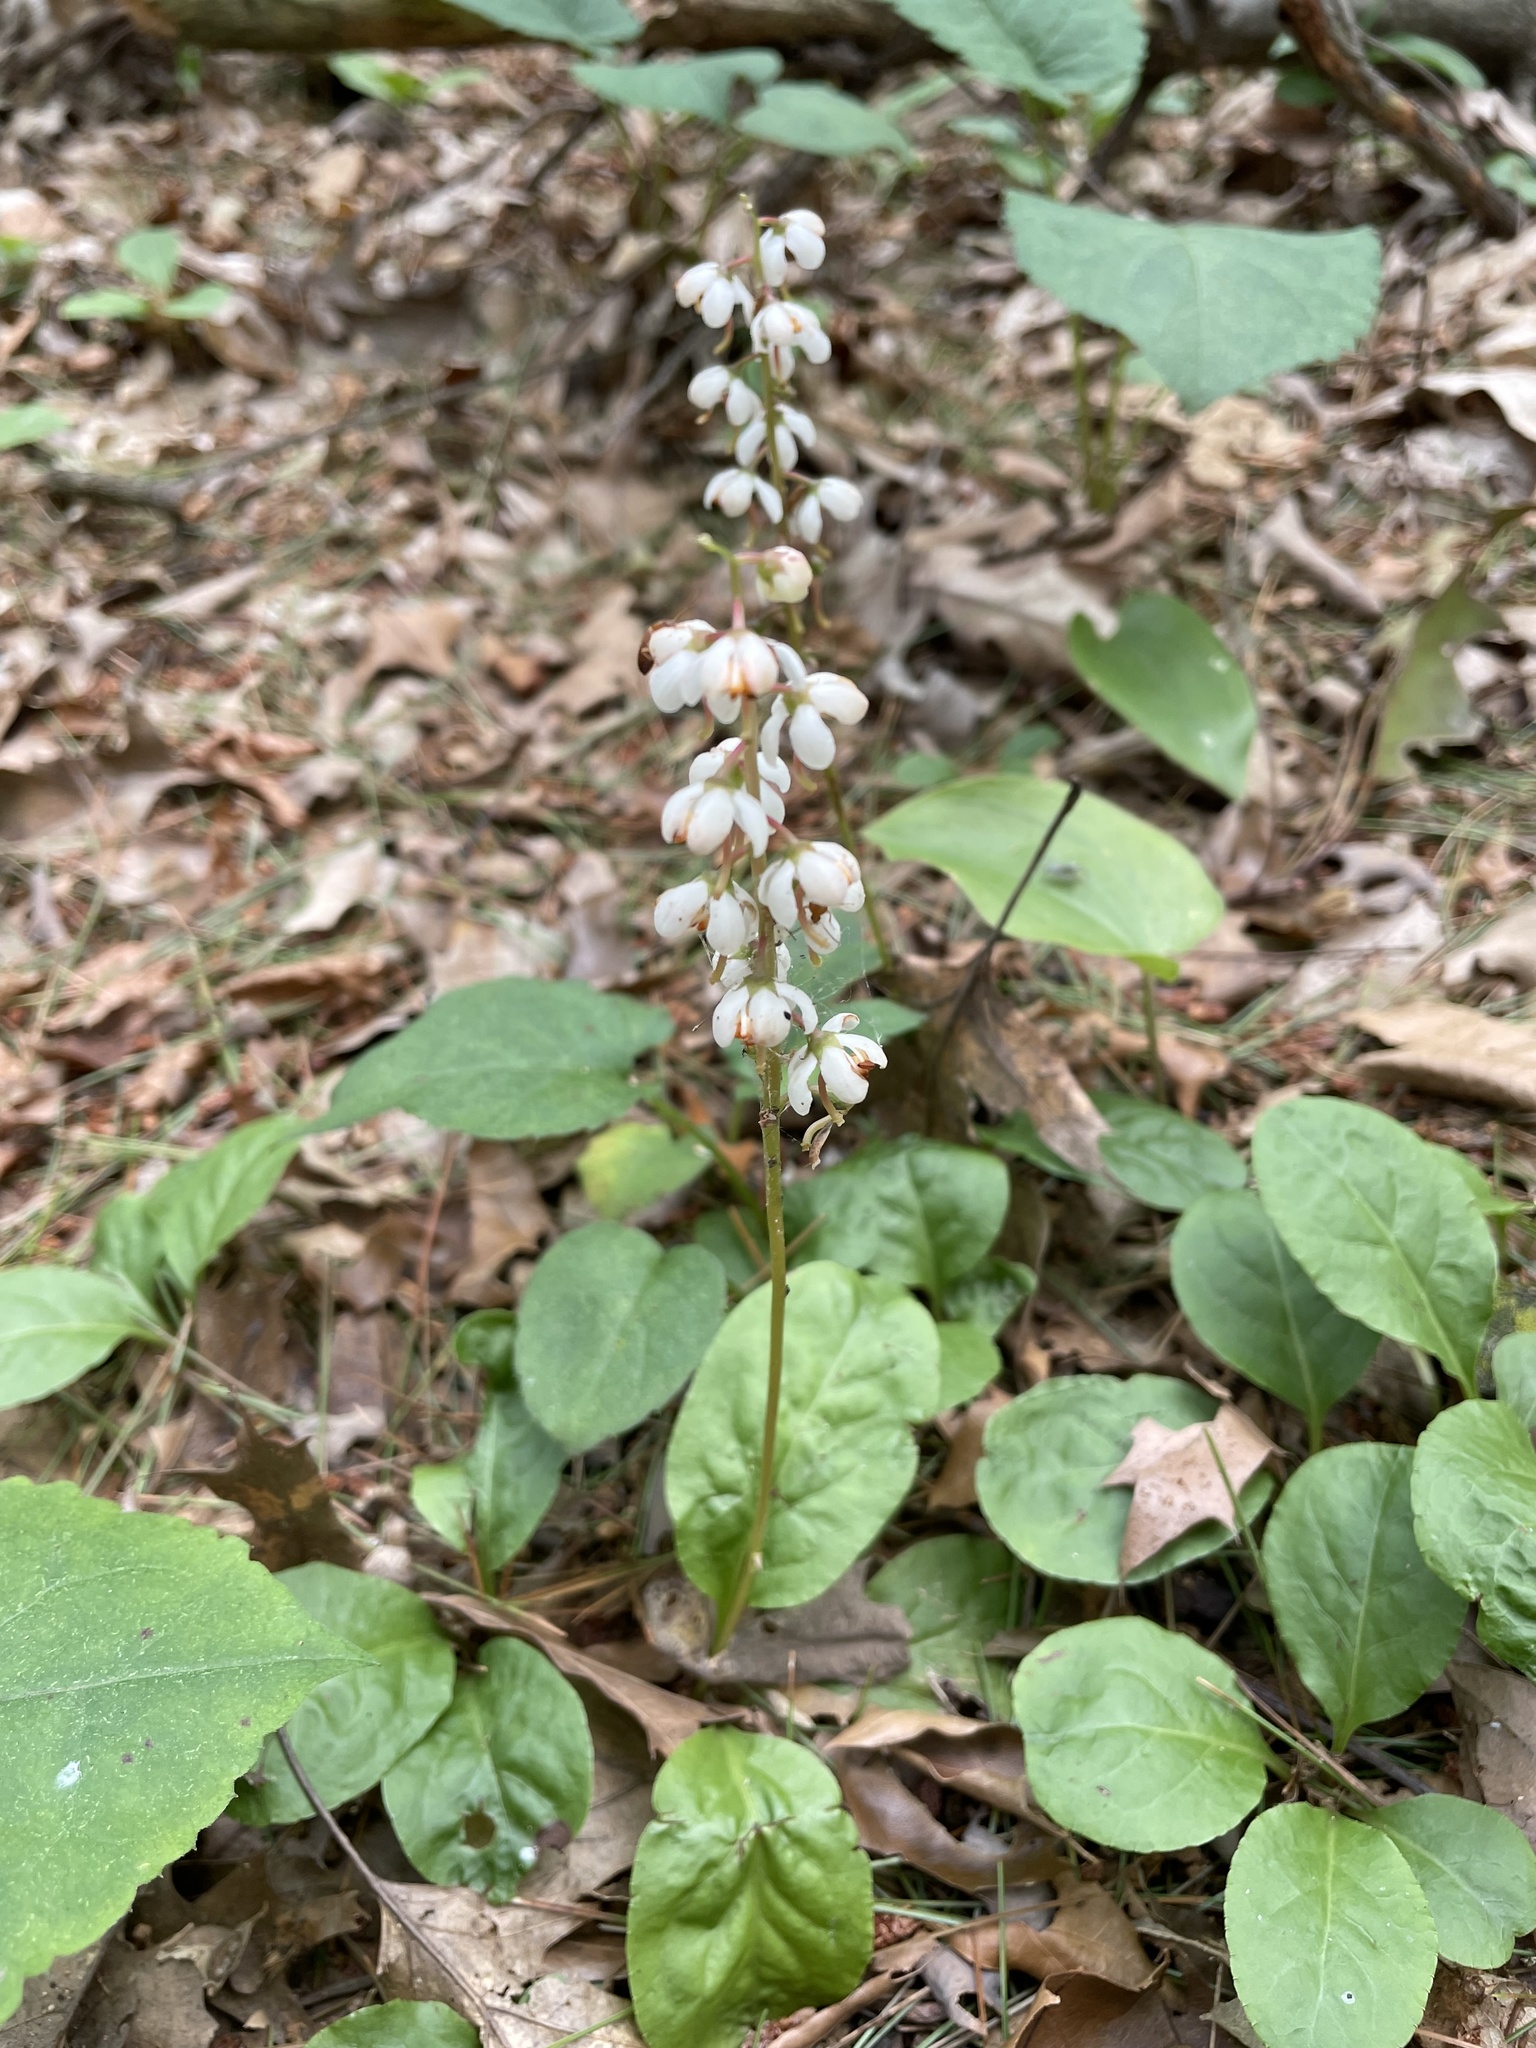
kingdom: Plantae
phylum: Tracheophyta
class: Magnoliopsida
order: Ericales
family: Ericaceae
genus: Pyrola
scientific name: Pyrola elliptica
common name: Shinleaf
